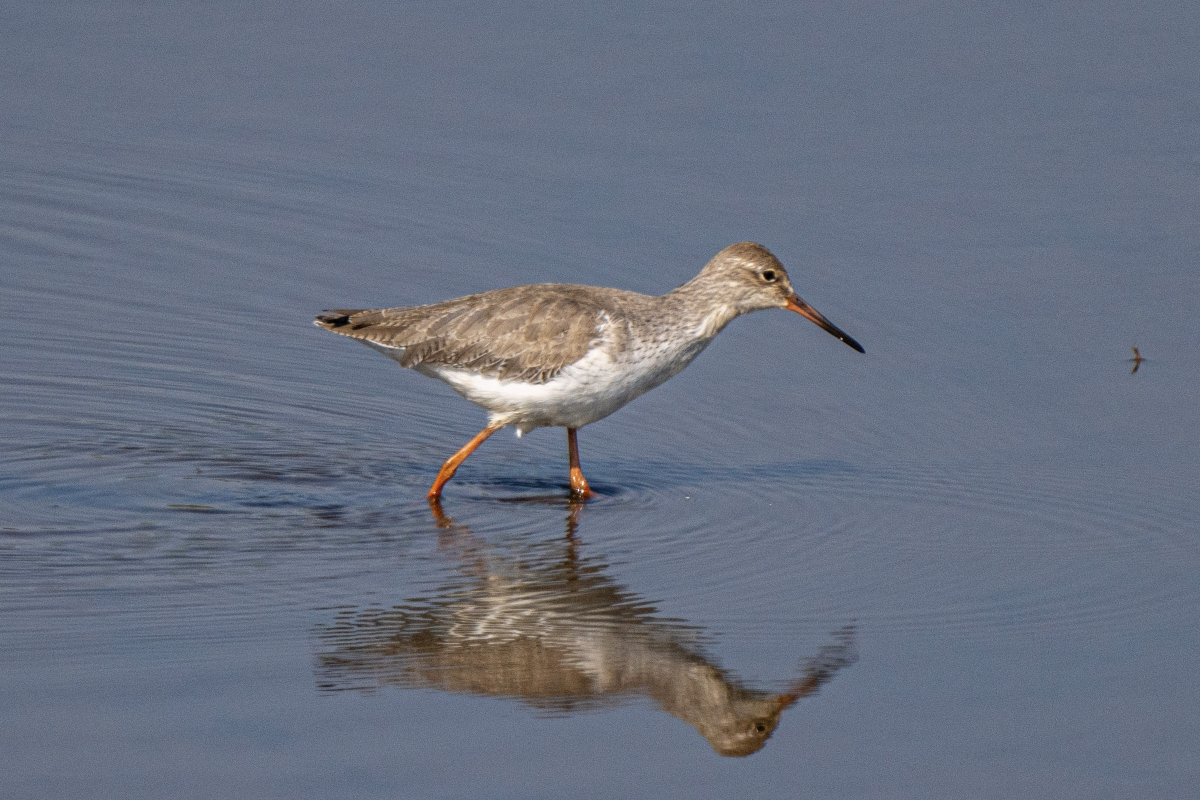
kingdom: Animalia
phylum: Chordata
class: Aves
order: Charadriiformes
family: Scolopacidae
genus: Tringa
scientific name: Tringa totanus
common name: Common redshank
